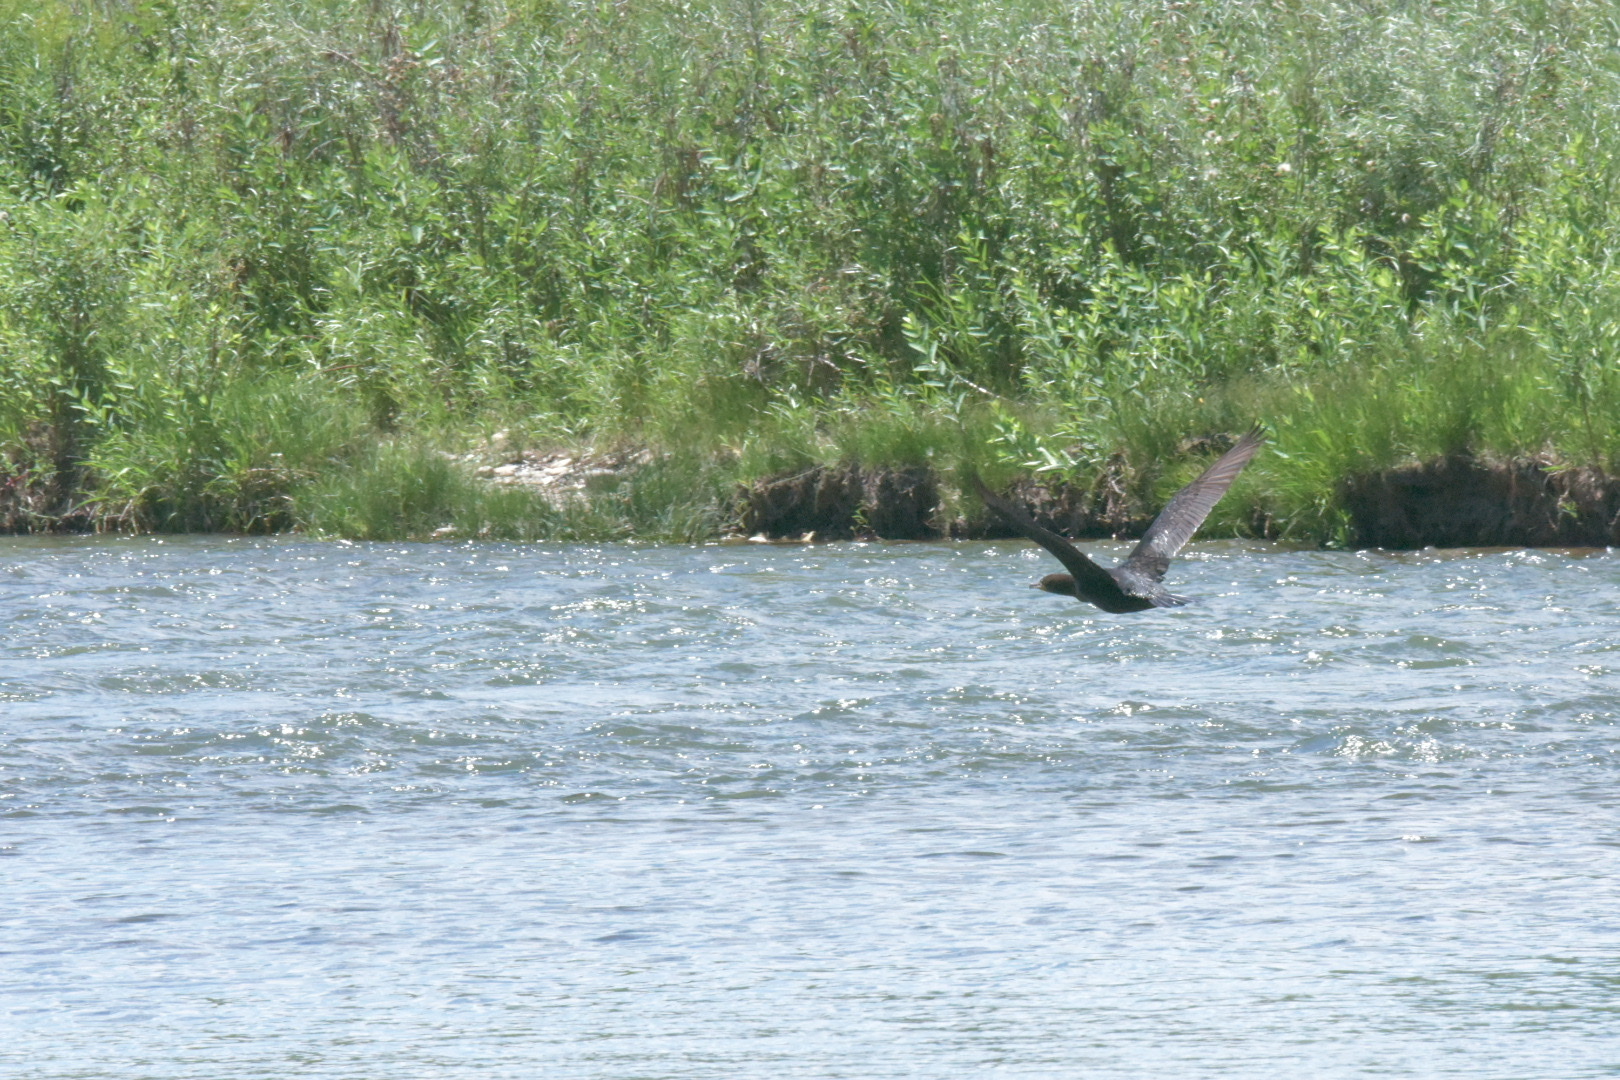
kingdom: Animalia
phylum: Chordata
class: Aves
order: Suliformes
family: Phalacrocoracidae
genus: Phalacrocorax
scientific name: Phalacrocorax auritus
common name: Double-crested cormorant
